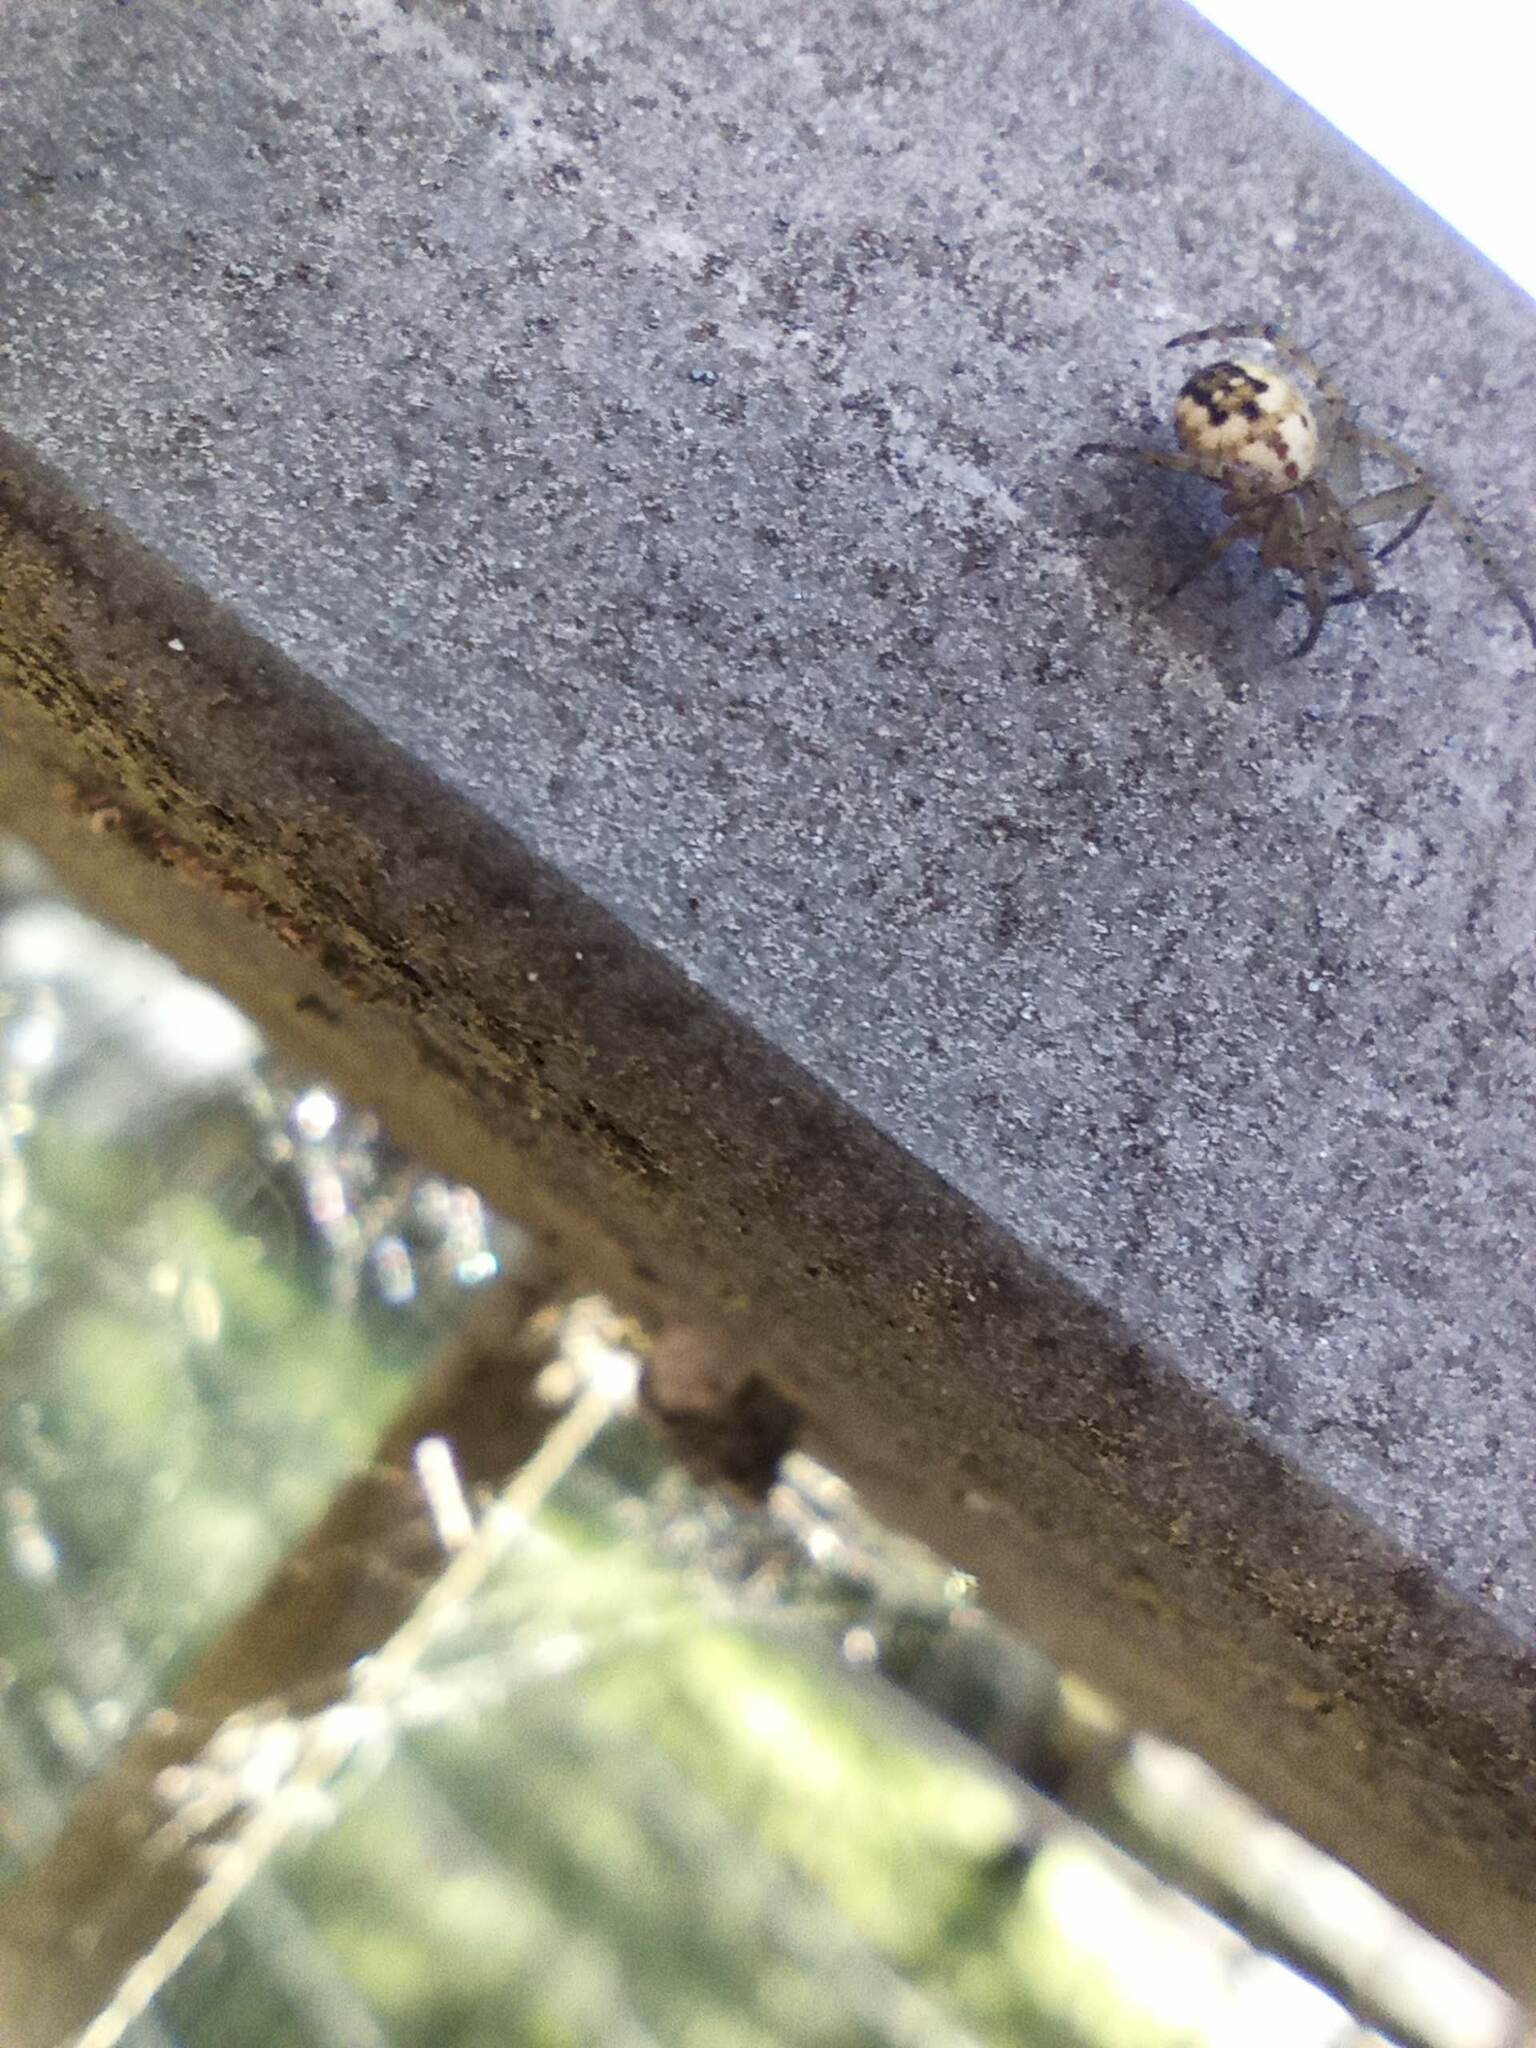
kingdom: Animalia
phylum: Arthropoda
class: Arachnida
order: Araneae
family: Araneidae
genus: Mangora
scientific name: Mangora acalypha
